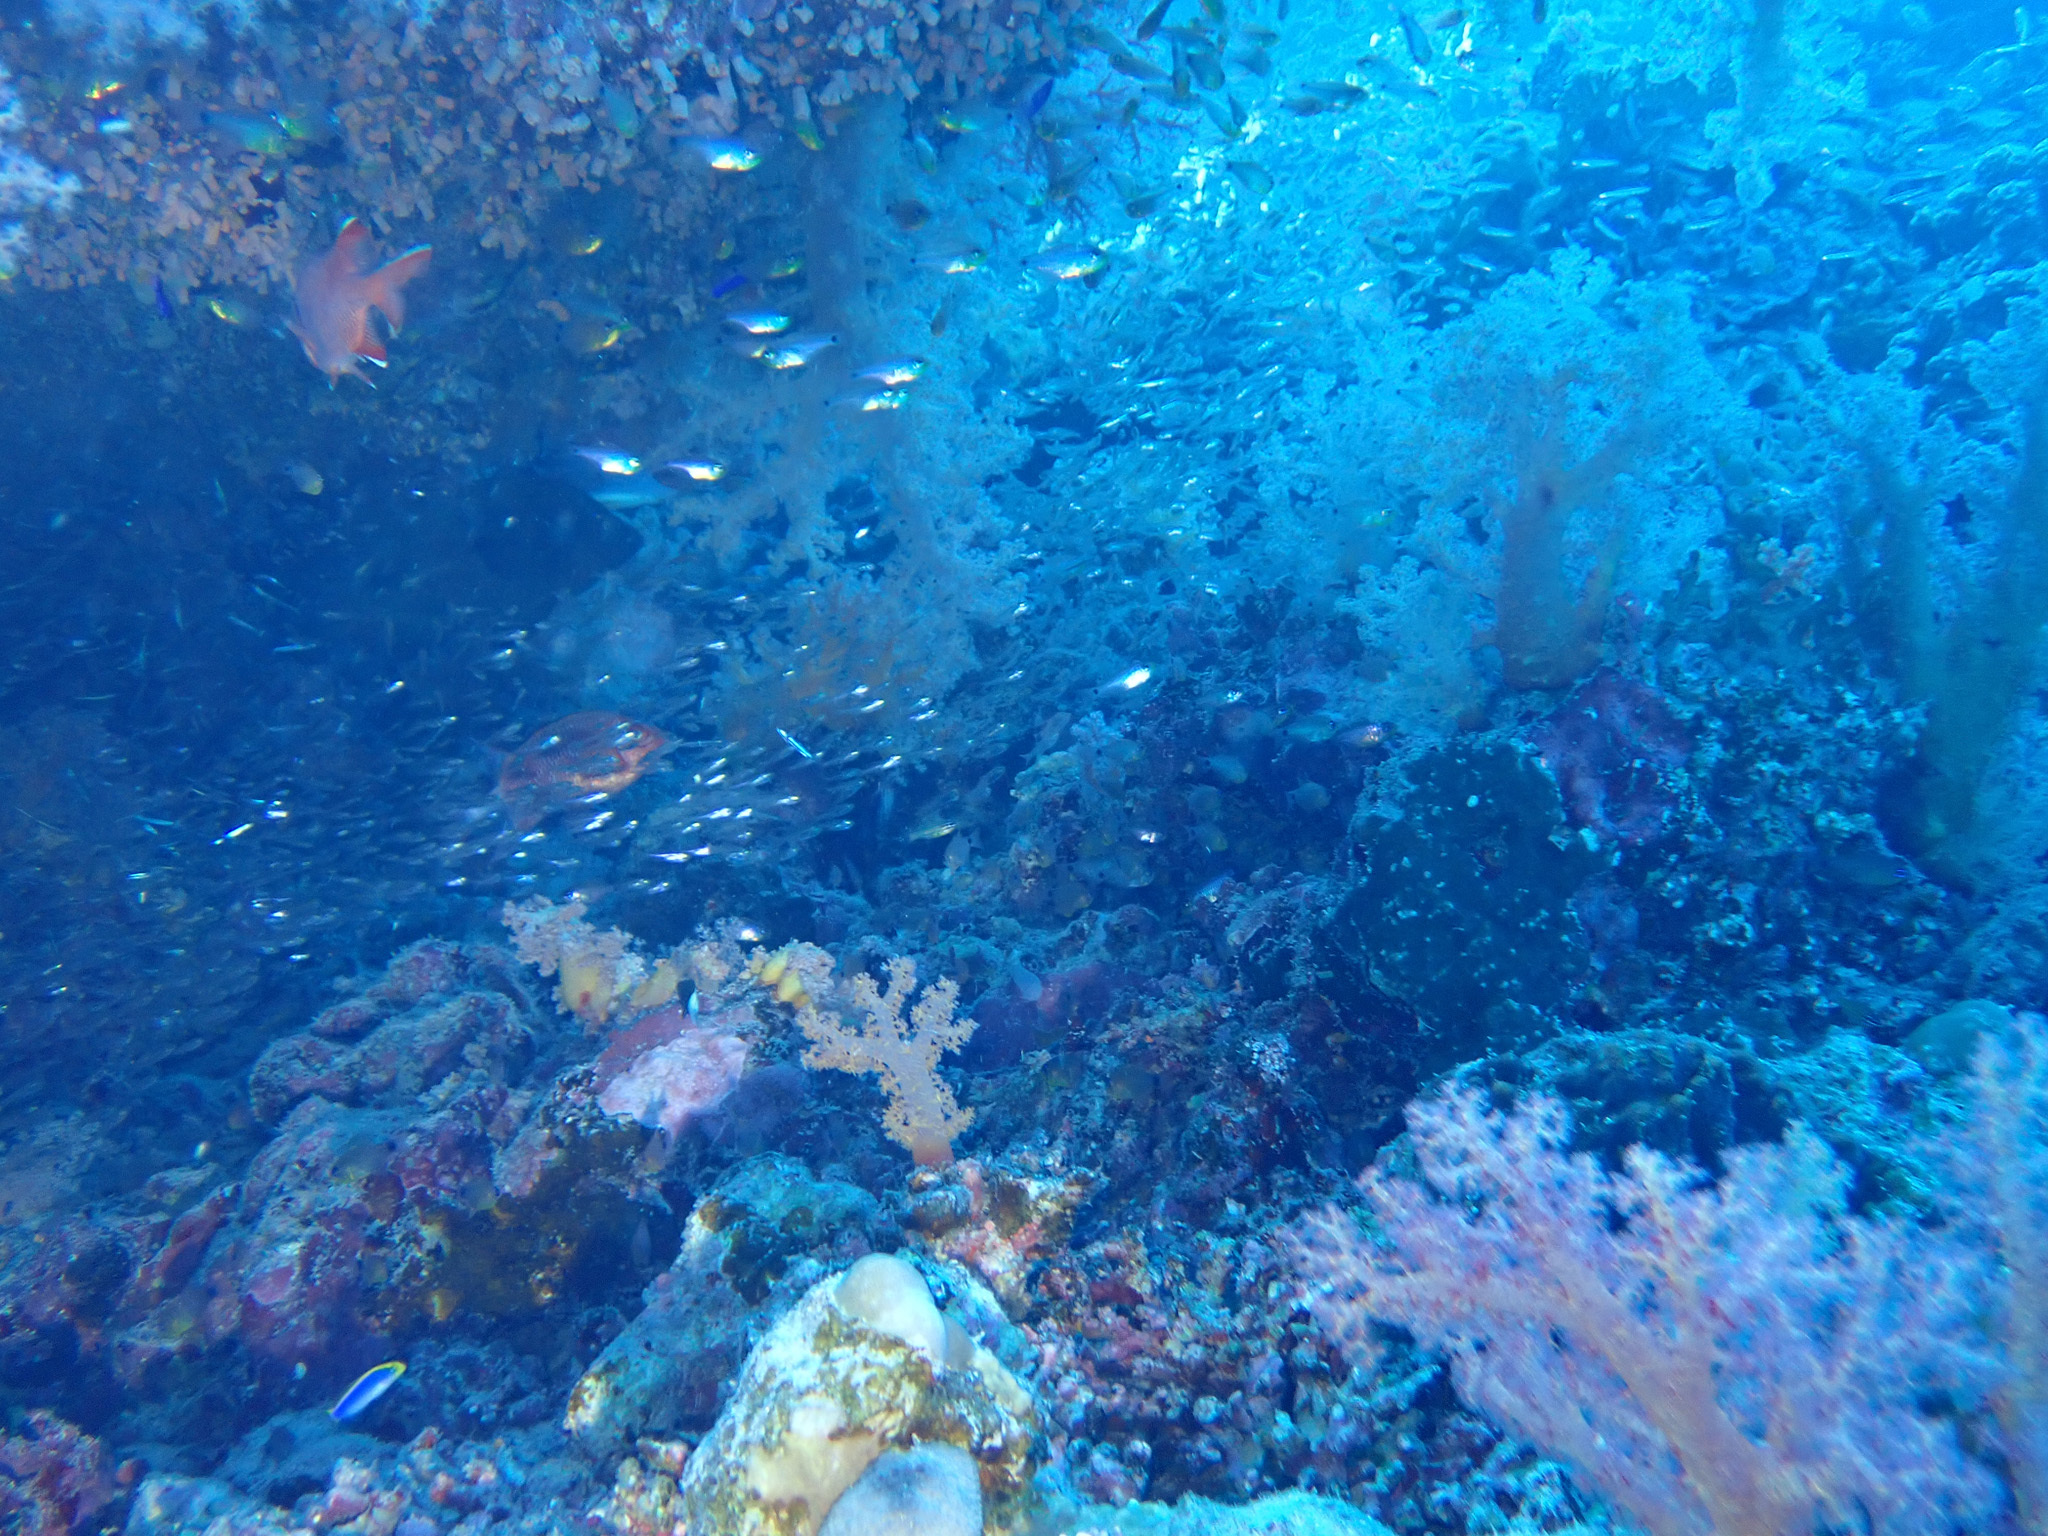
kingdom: Animalia
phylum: Cnidaria
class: Anthozoa
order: Malacalcyonacea
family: Nephtheidae
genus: Dendronephthya
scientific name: Dendronephthya hemprichi
